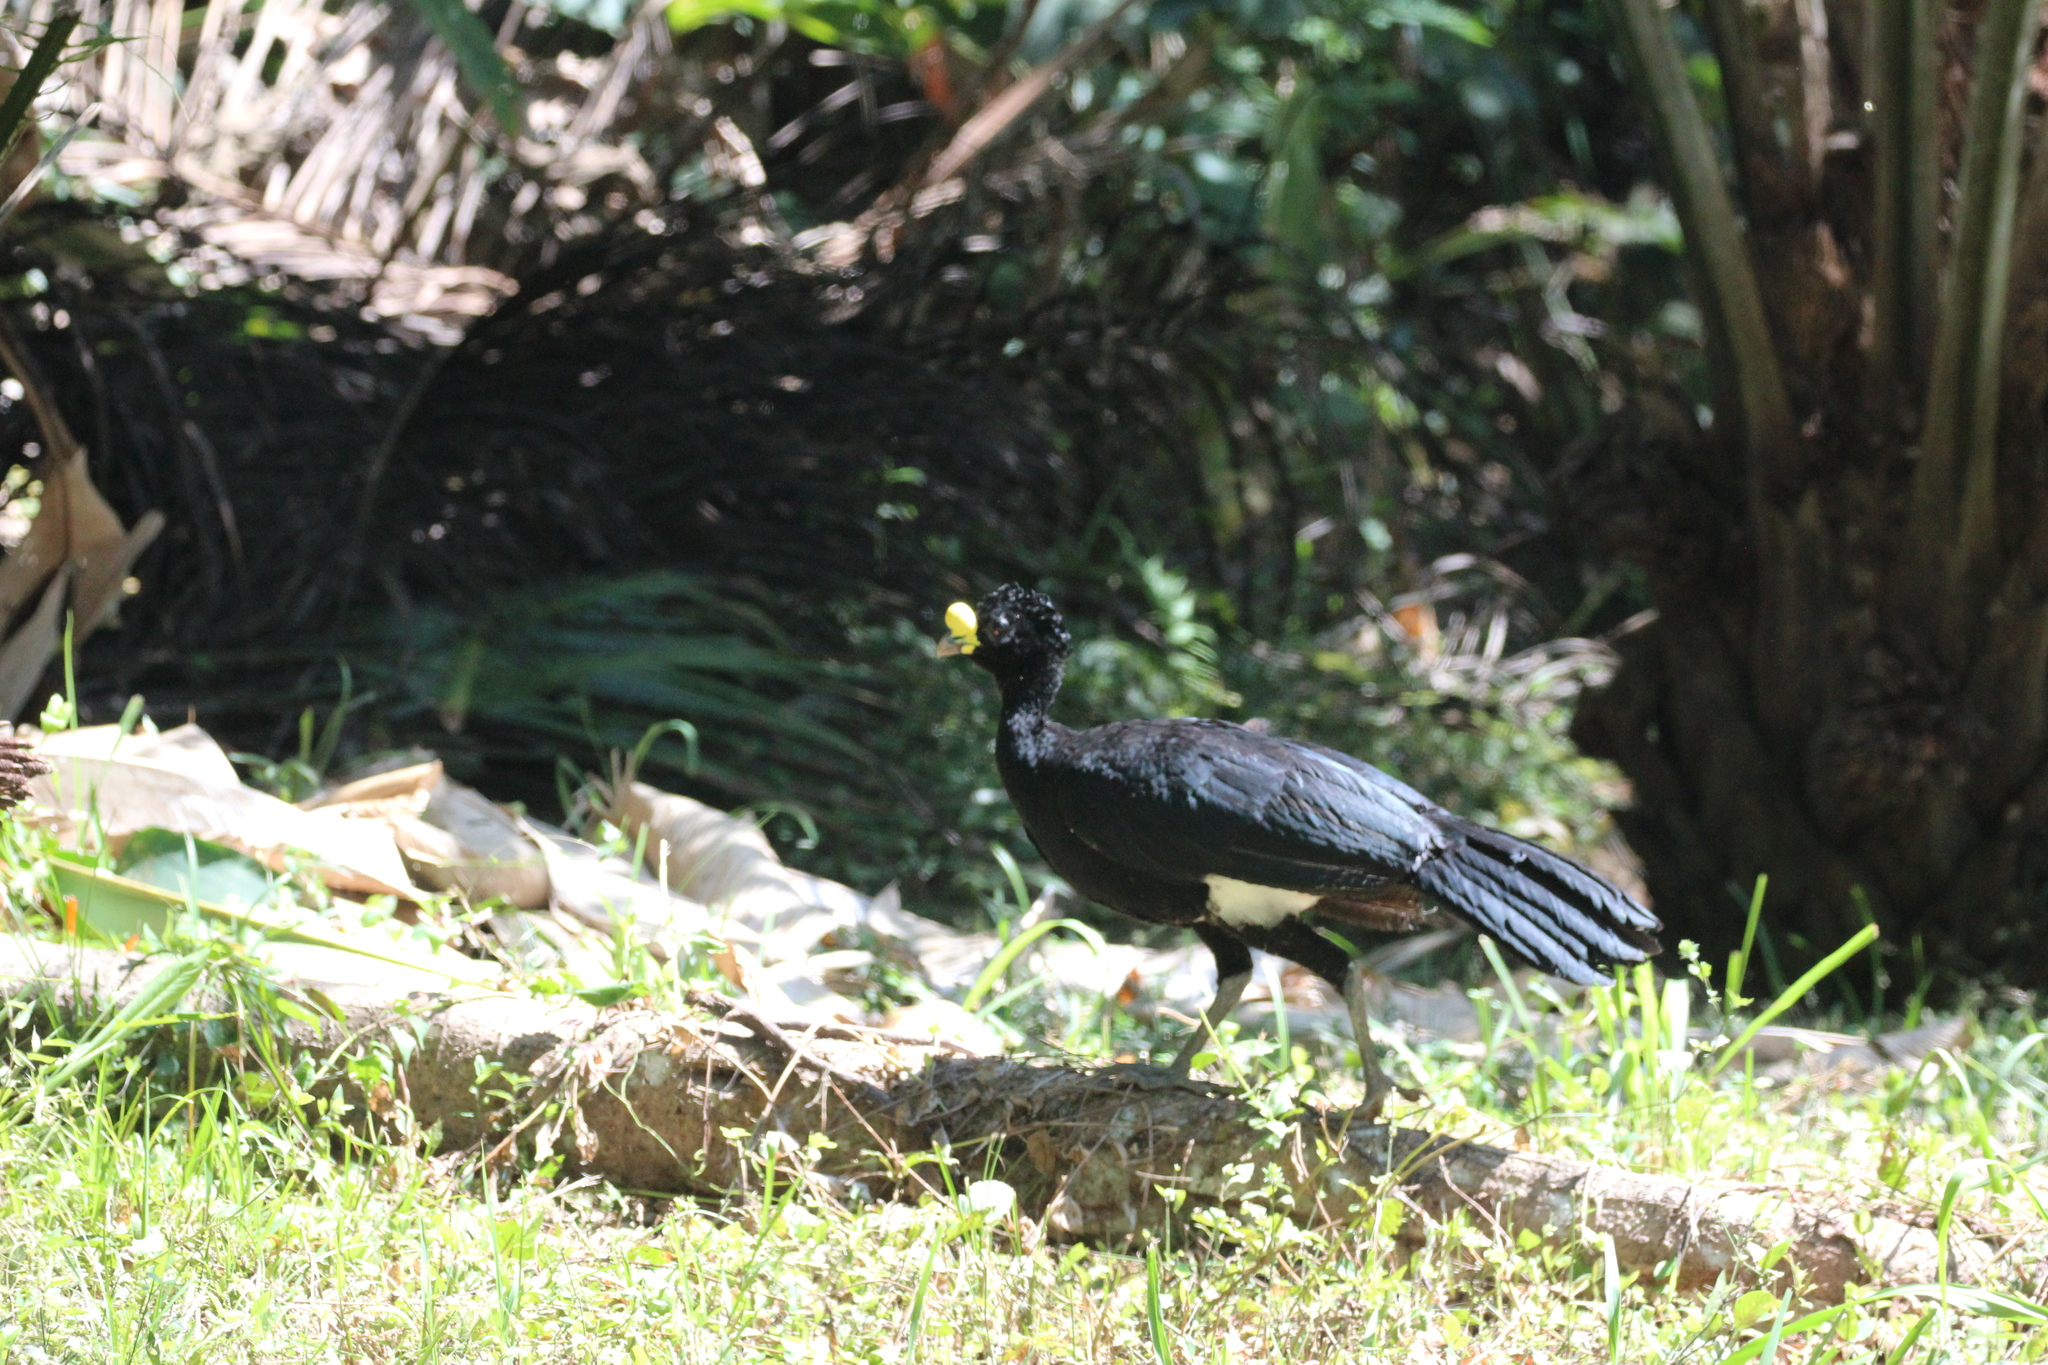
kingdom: Animalia
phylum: Chordata
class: Aves
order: Galliformes
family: Cracidae
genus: Crax
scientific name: Crax rubra
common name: Great curassow
